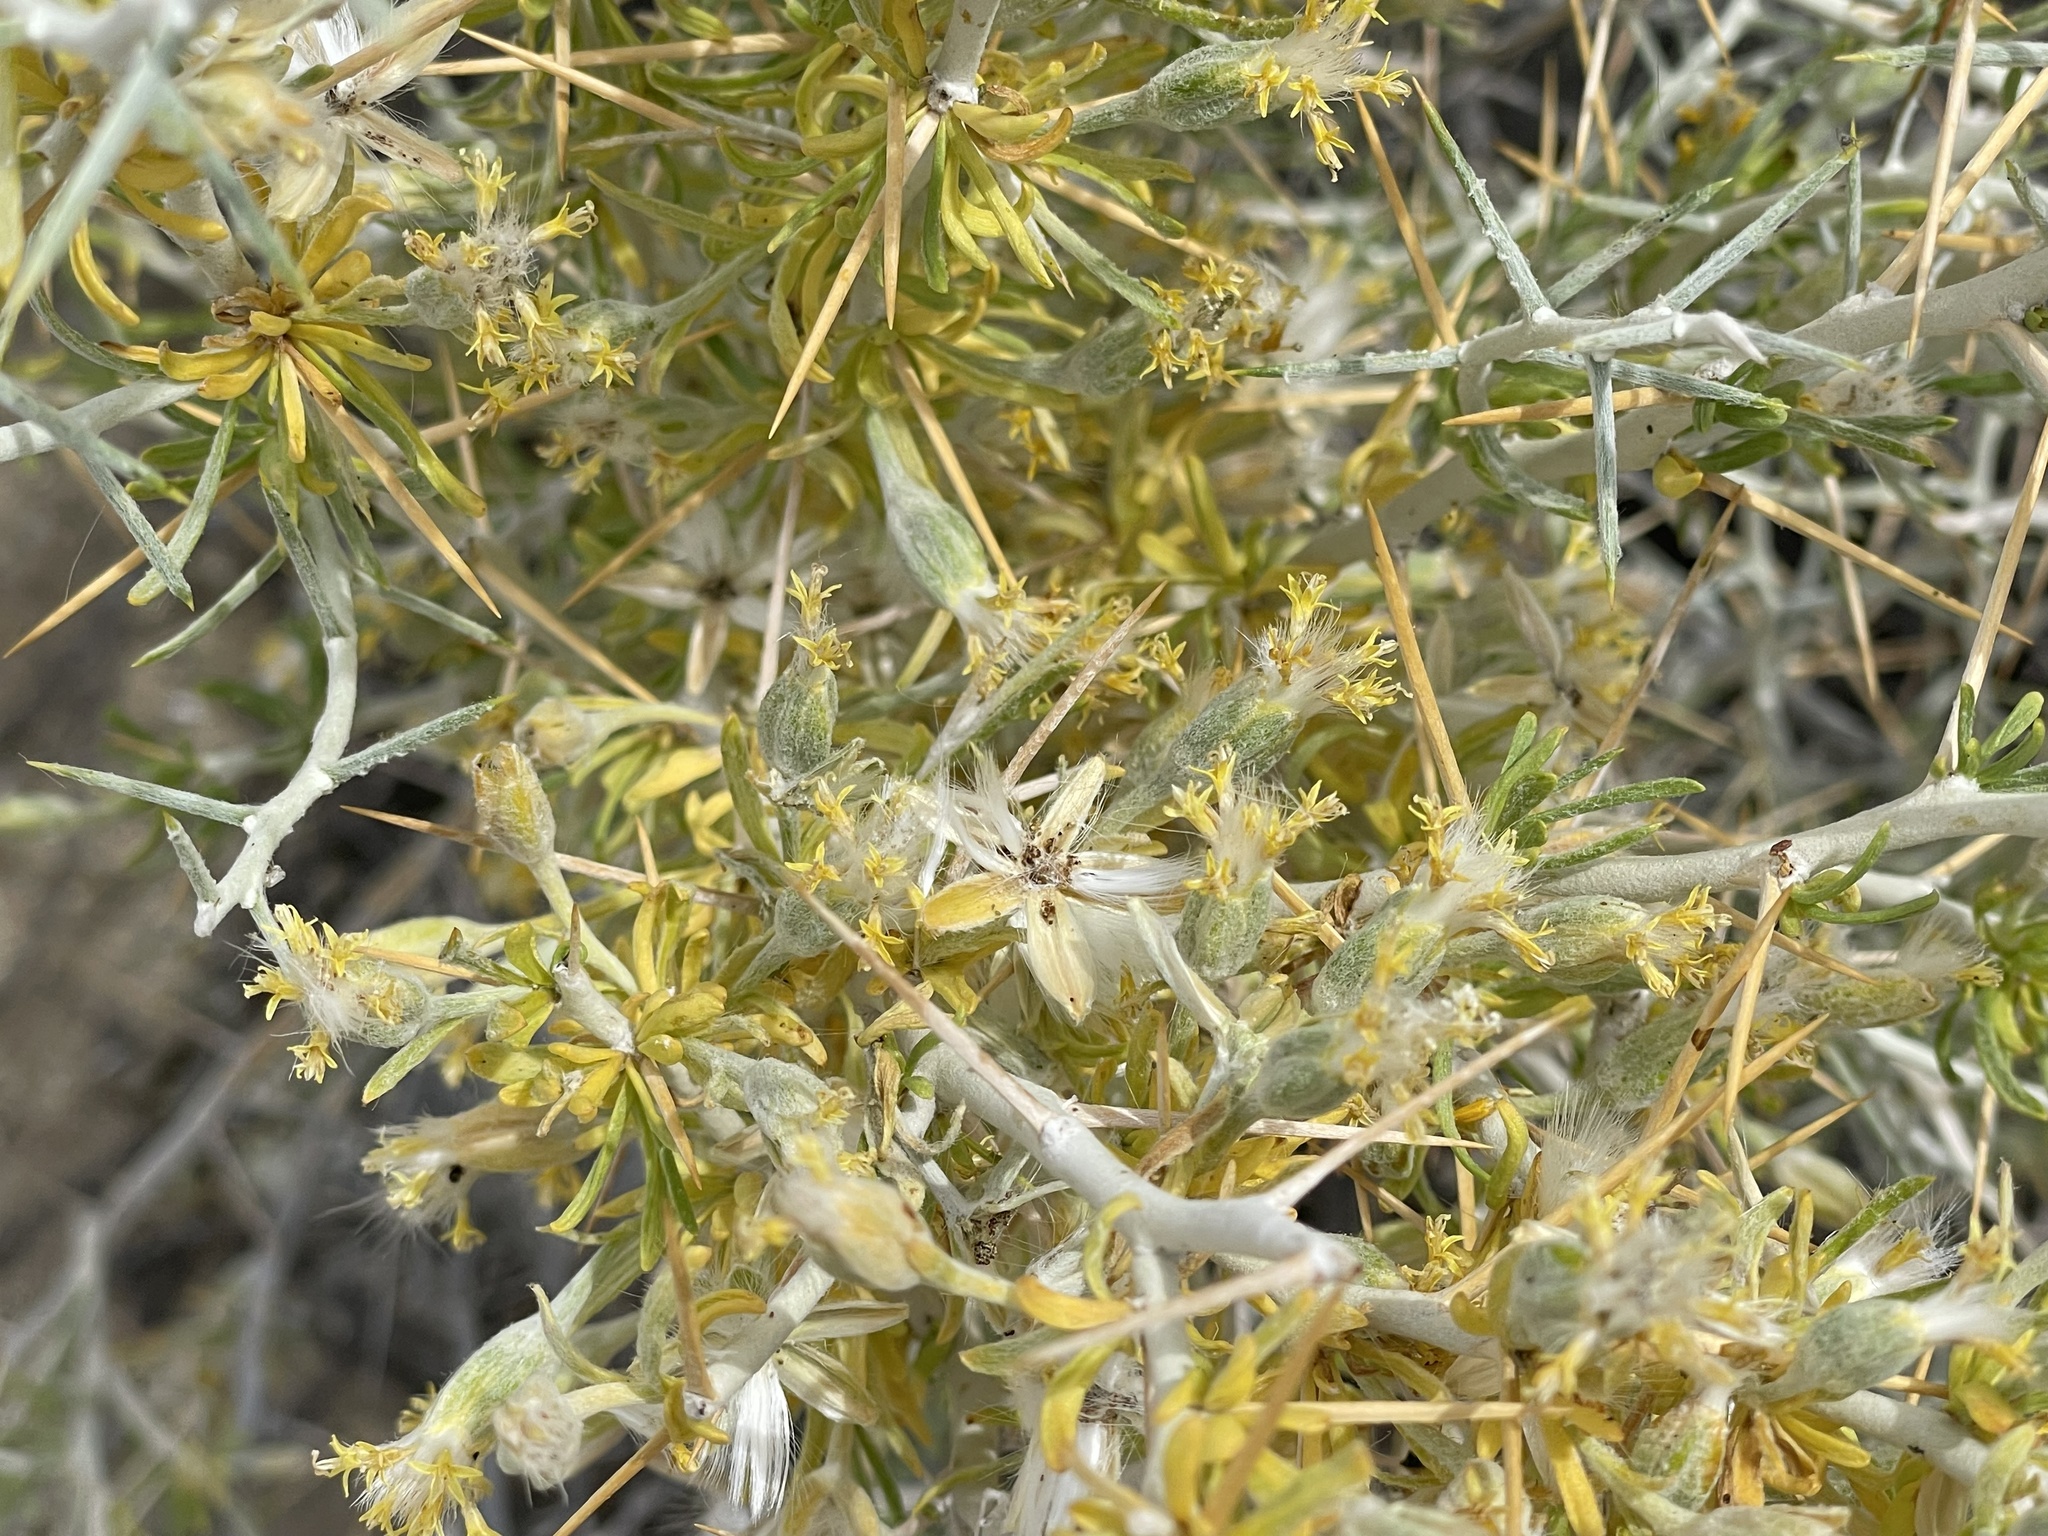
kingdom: Plantae
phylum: Tracheophyta
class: Magnoliopsida
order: Asterales
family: Asteraceae
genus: Tetradymia
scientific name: Tetradymia axillaris
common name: Long-spine horsebrush
